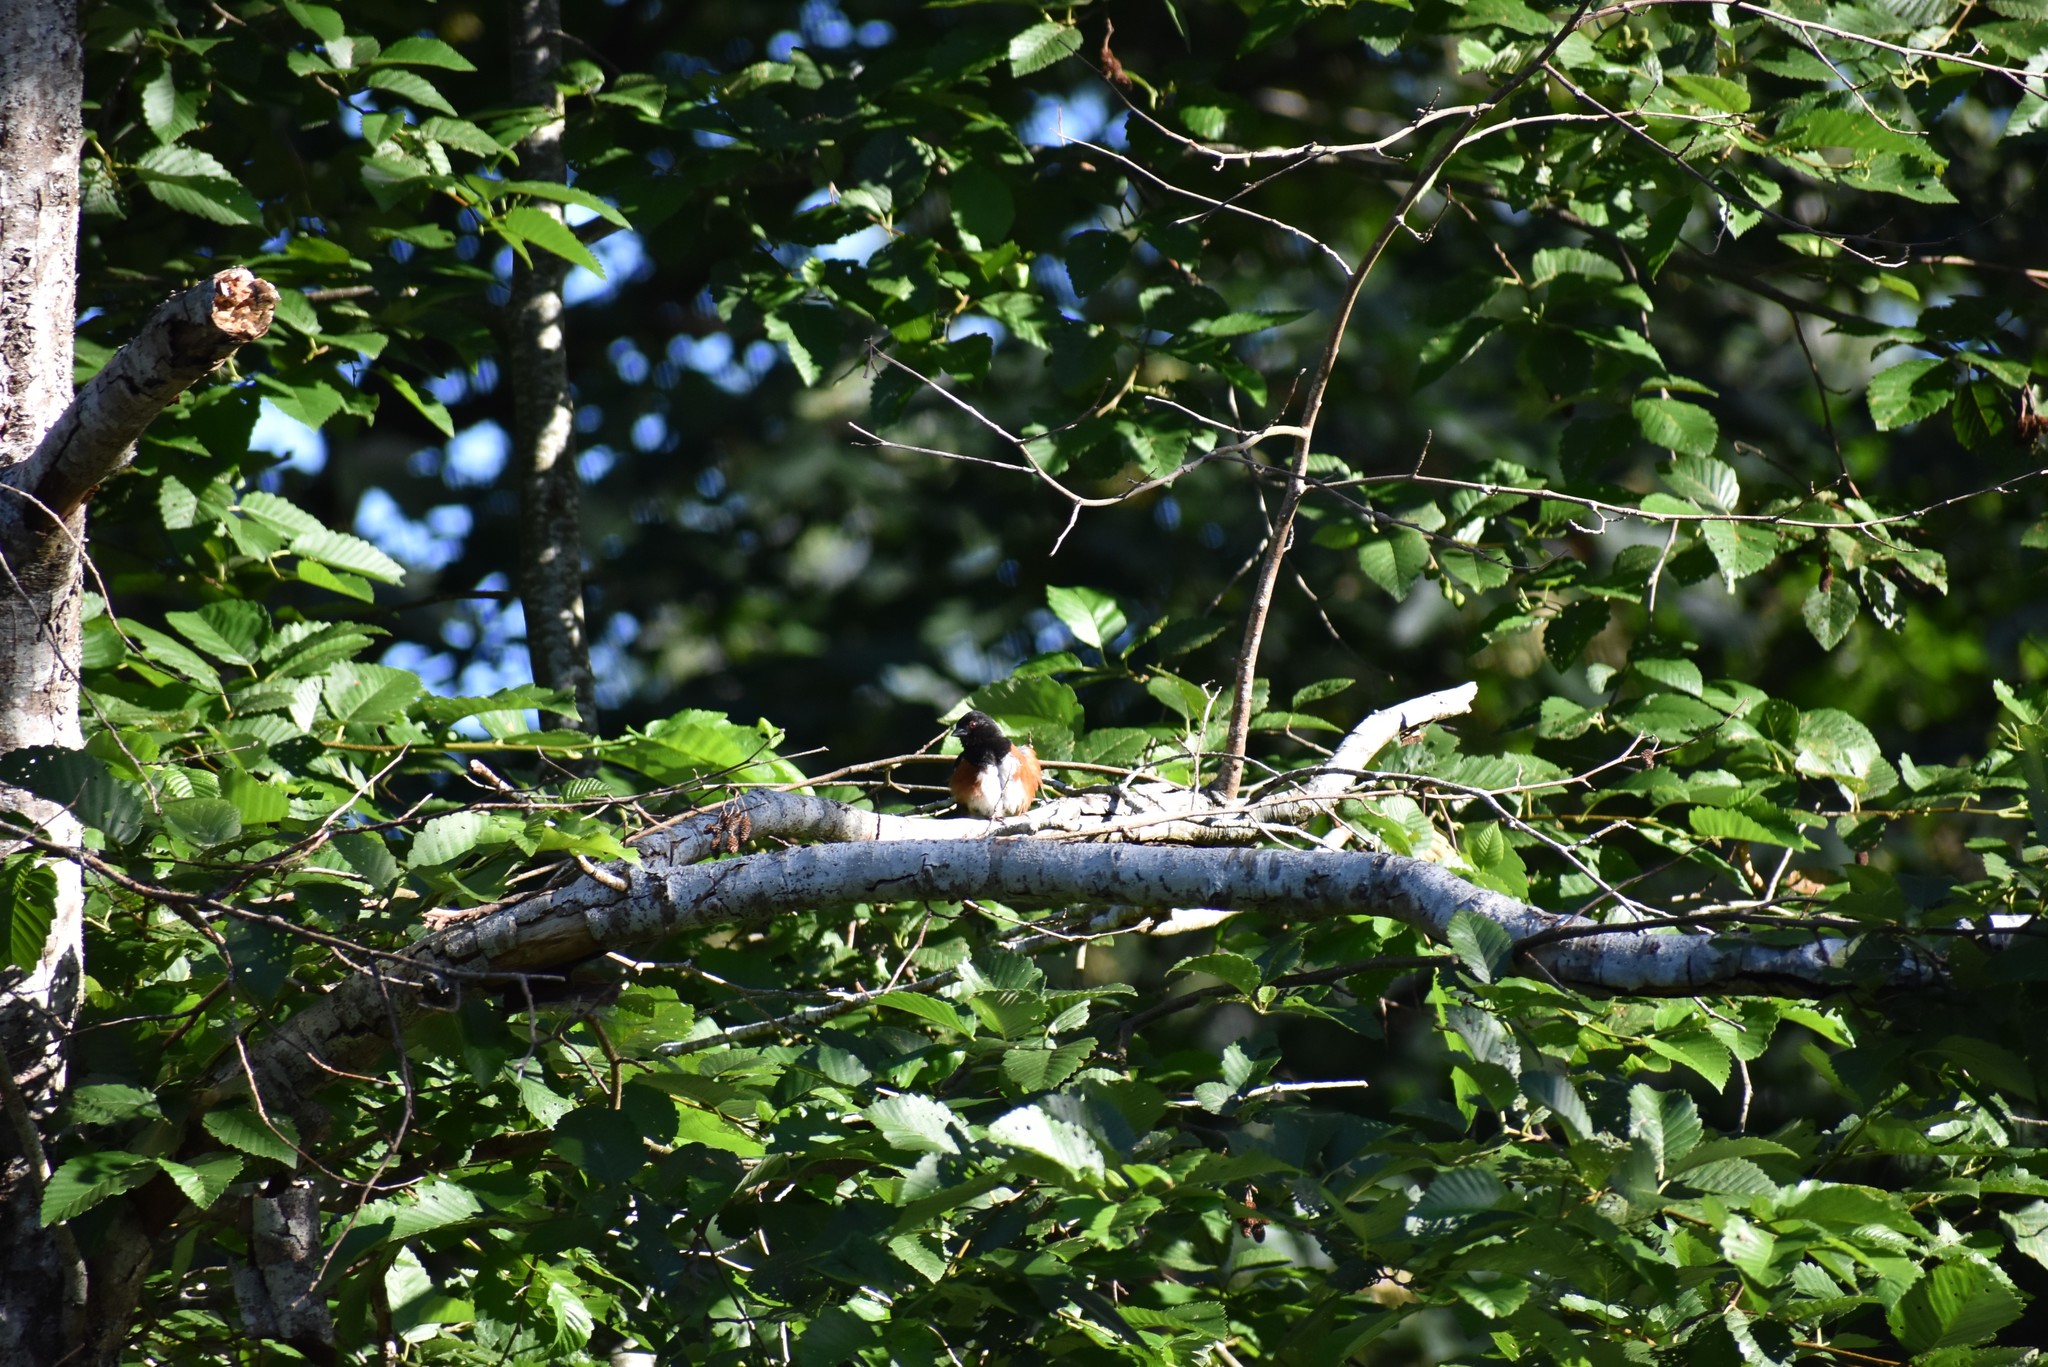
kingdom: Animalia
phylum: Chordata
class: Aves
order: Passeriformes
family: Passerellidae
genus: Pipilo
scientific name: Pipilo maculatus
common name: Spotted towhee
